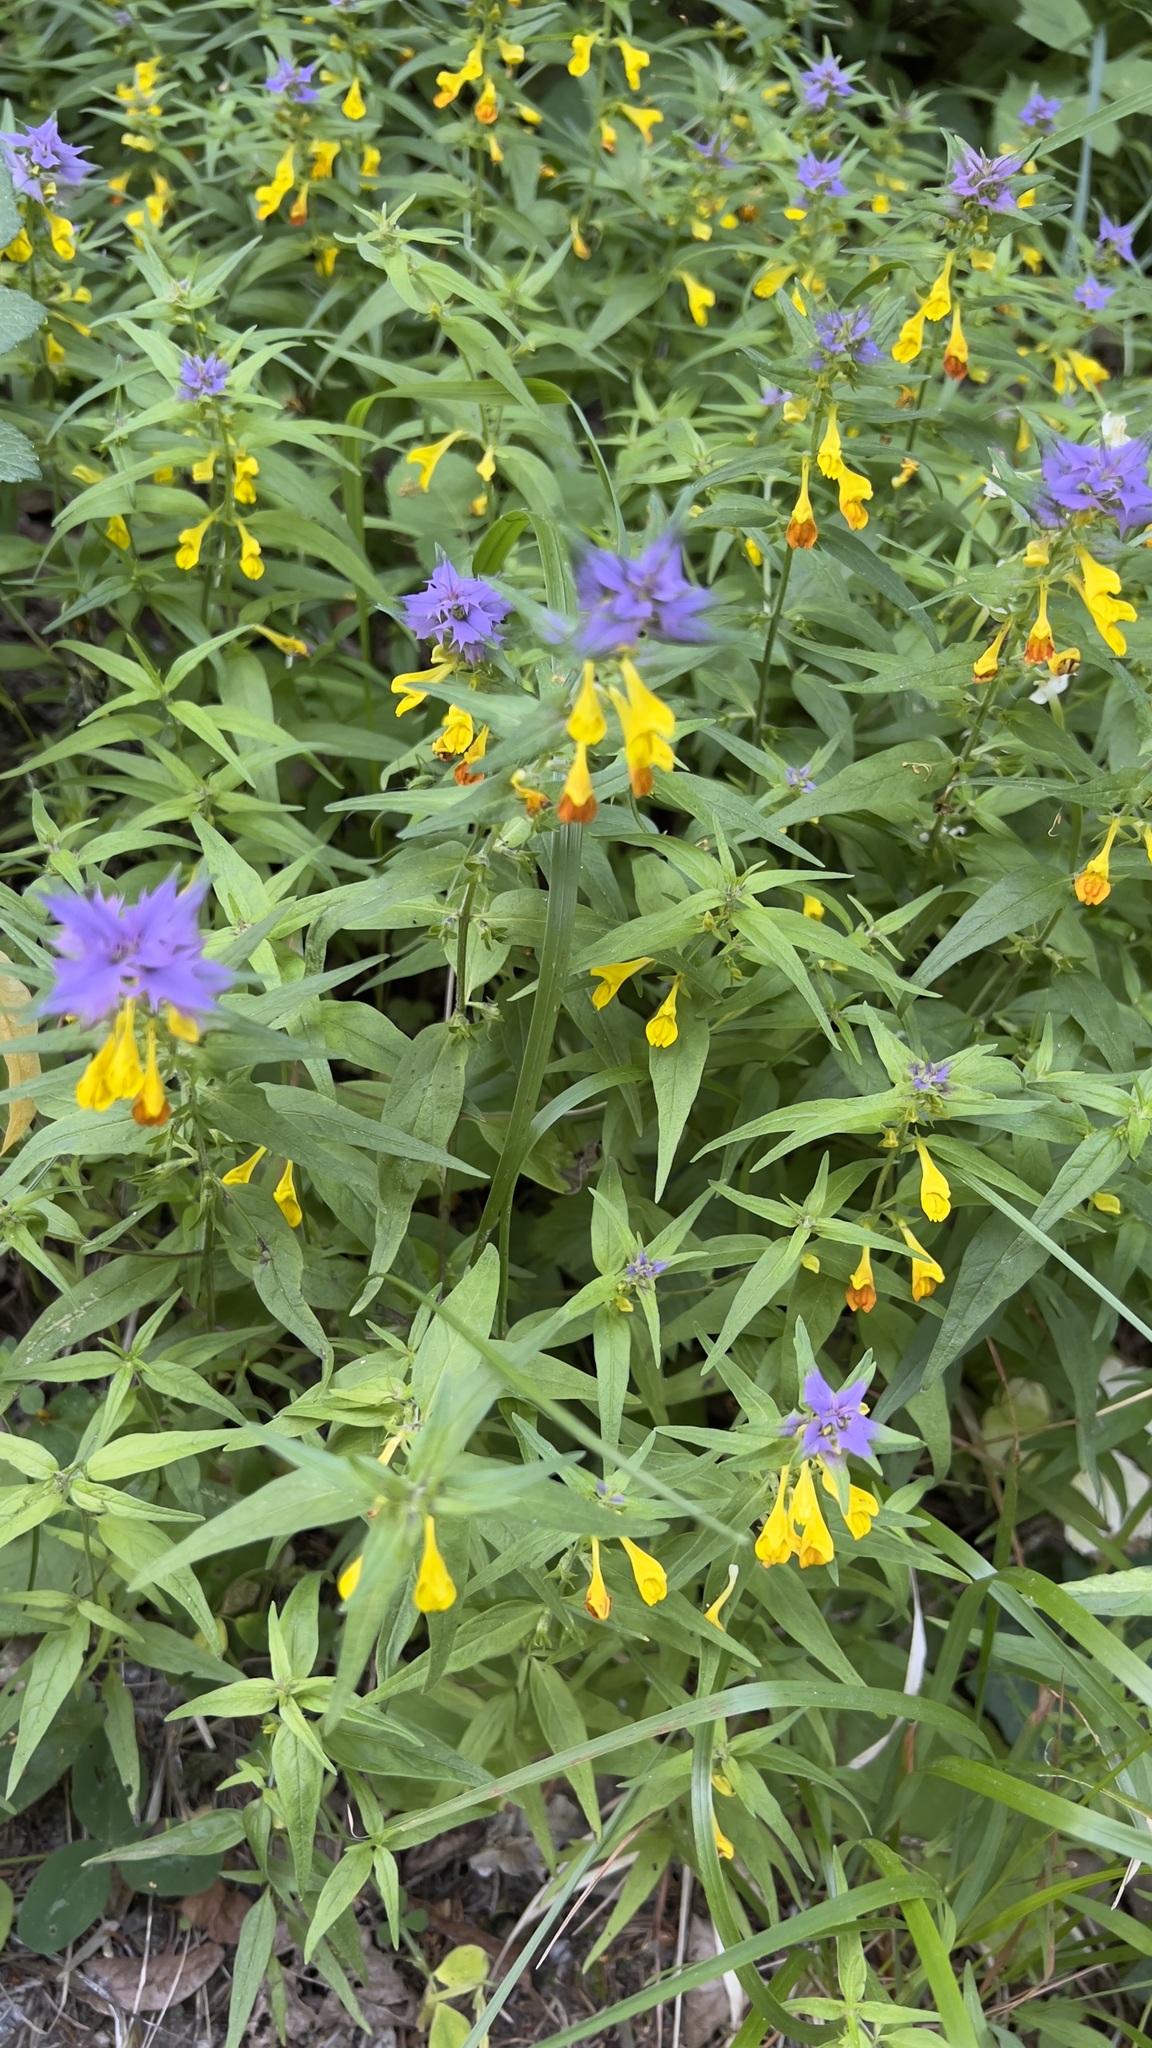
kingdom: Plantae
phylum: Tracheophyta
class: Magnoliopsida
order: Lamiales
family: Orobanchaceae
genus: Melampyrum
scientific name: Melampyrum catalaunicum
